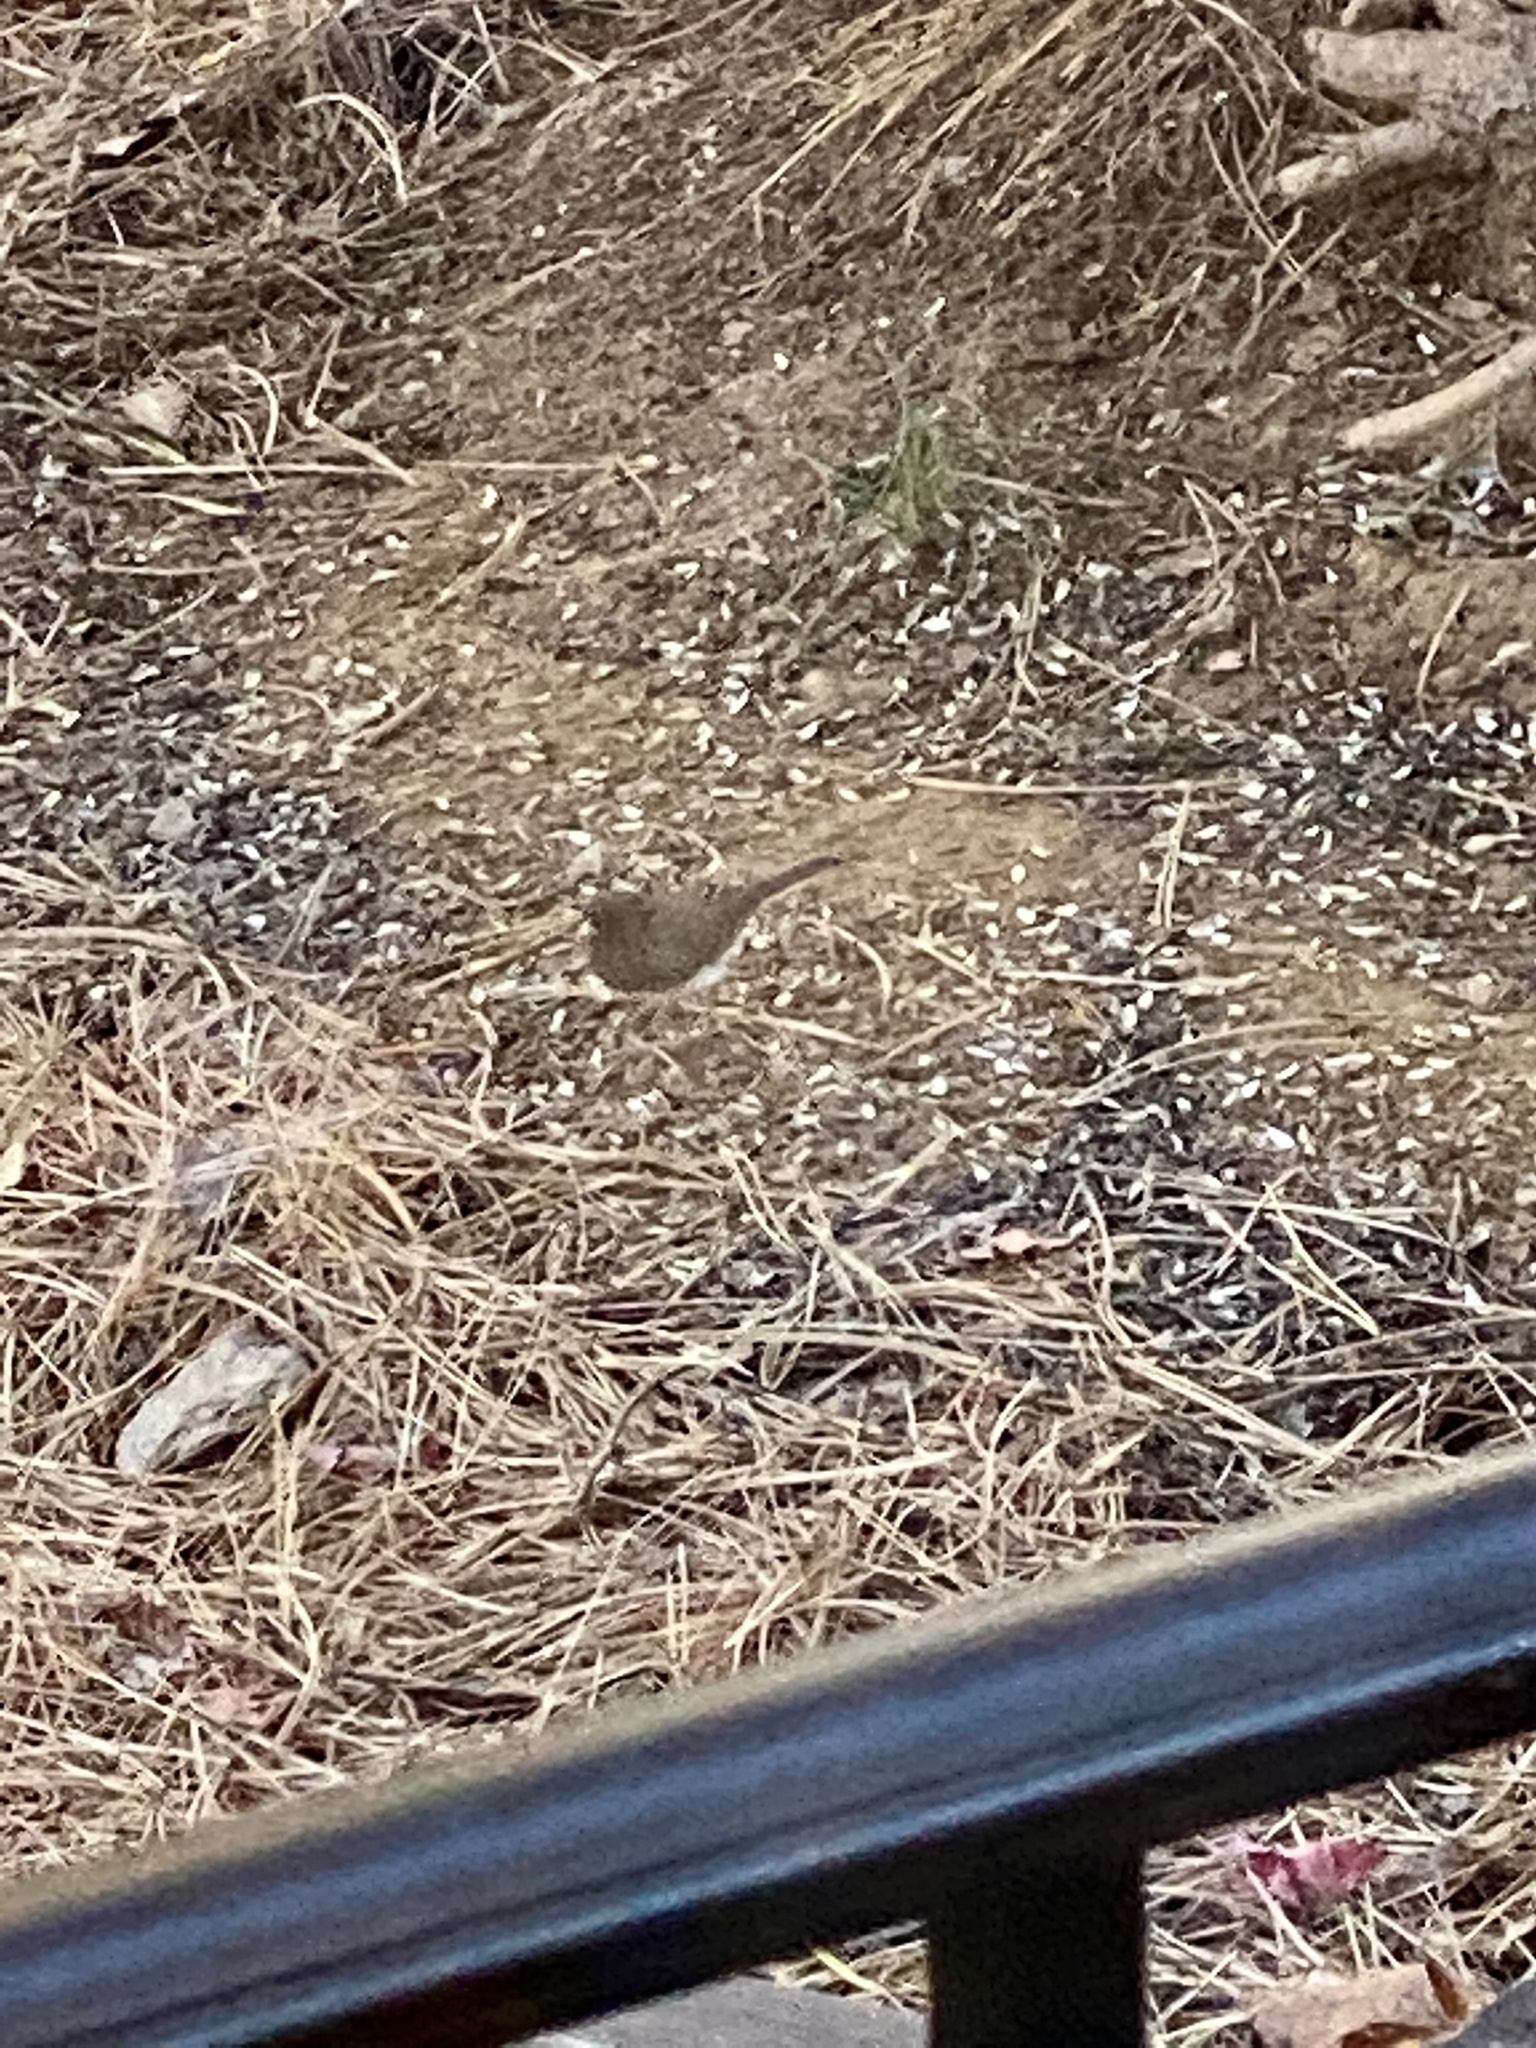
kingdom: Animalia
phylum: Chordata
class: Aves
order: Passeriformes
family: Passerellidae
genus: Junco
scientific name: Junco hyemalis
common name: Dark-eyed junco
